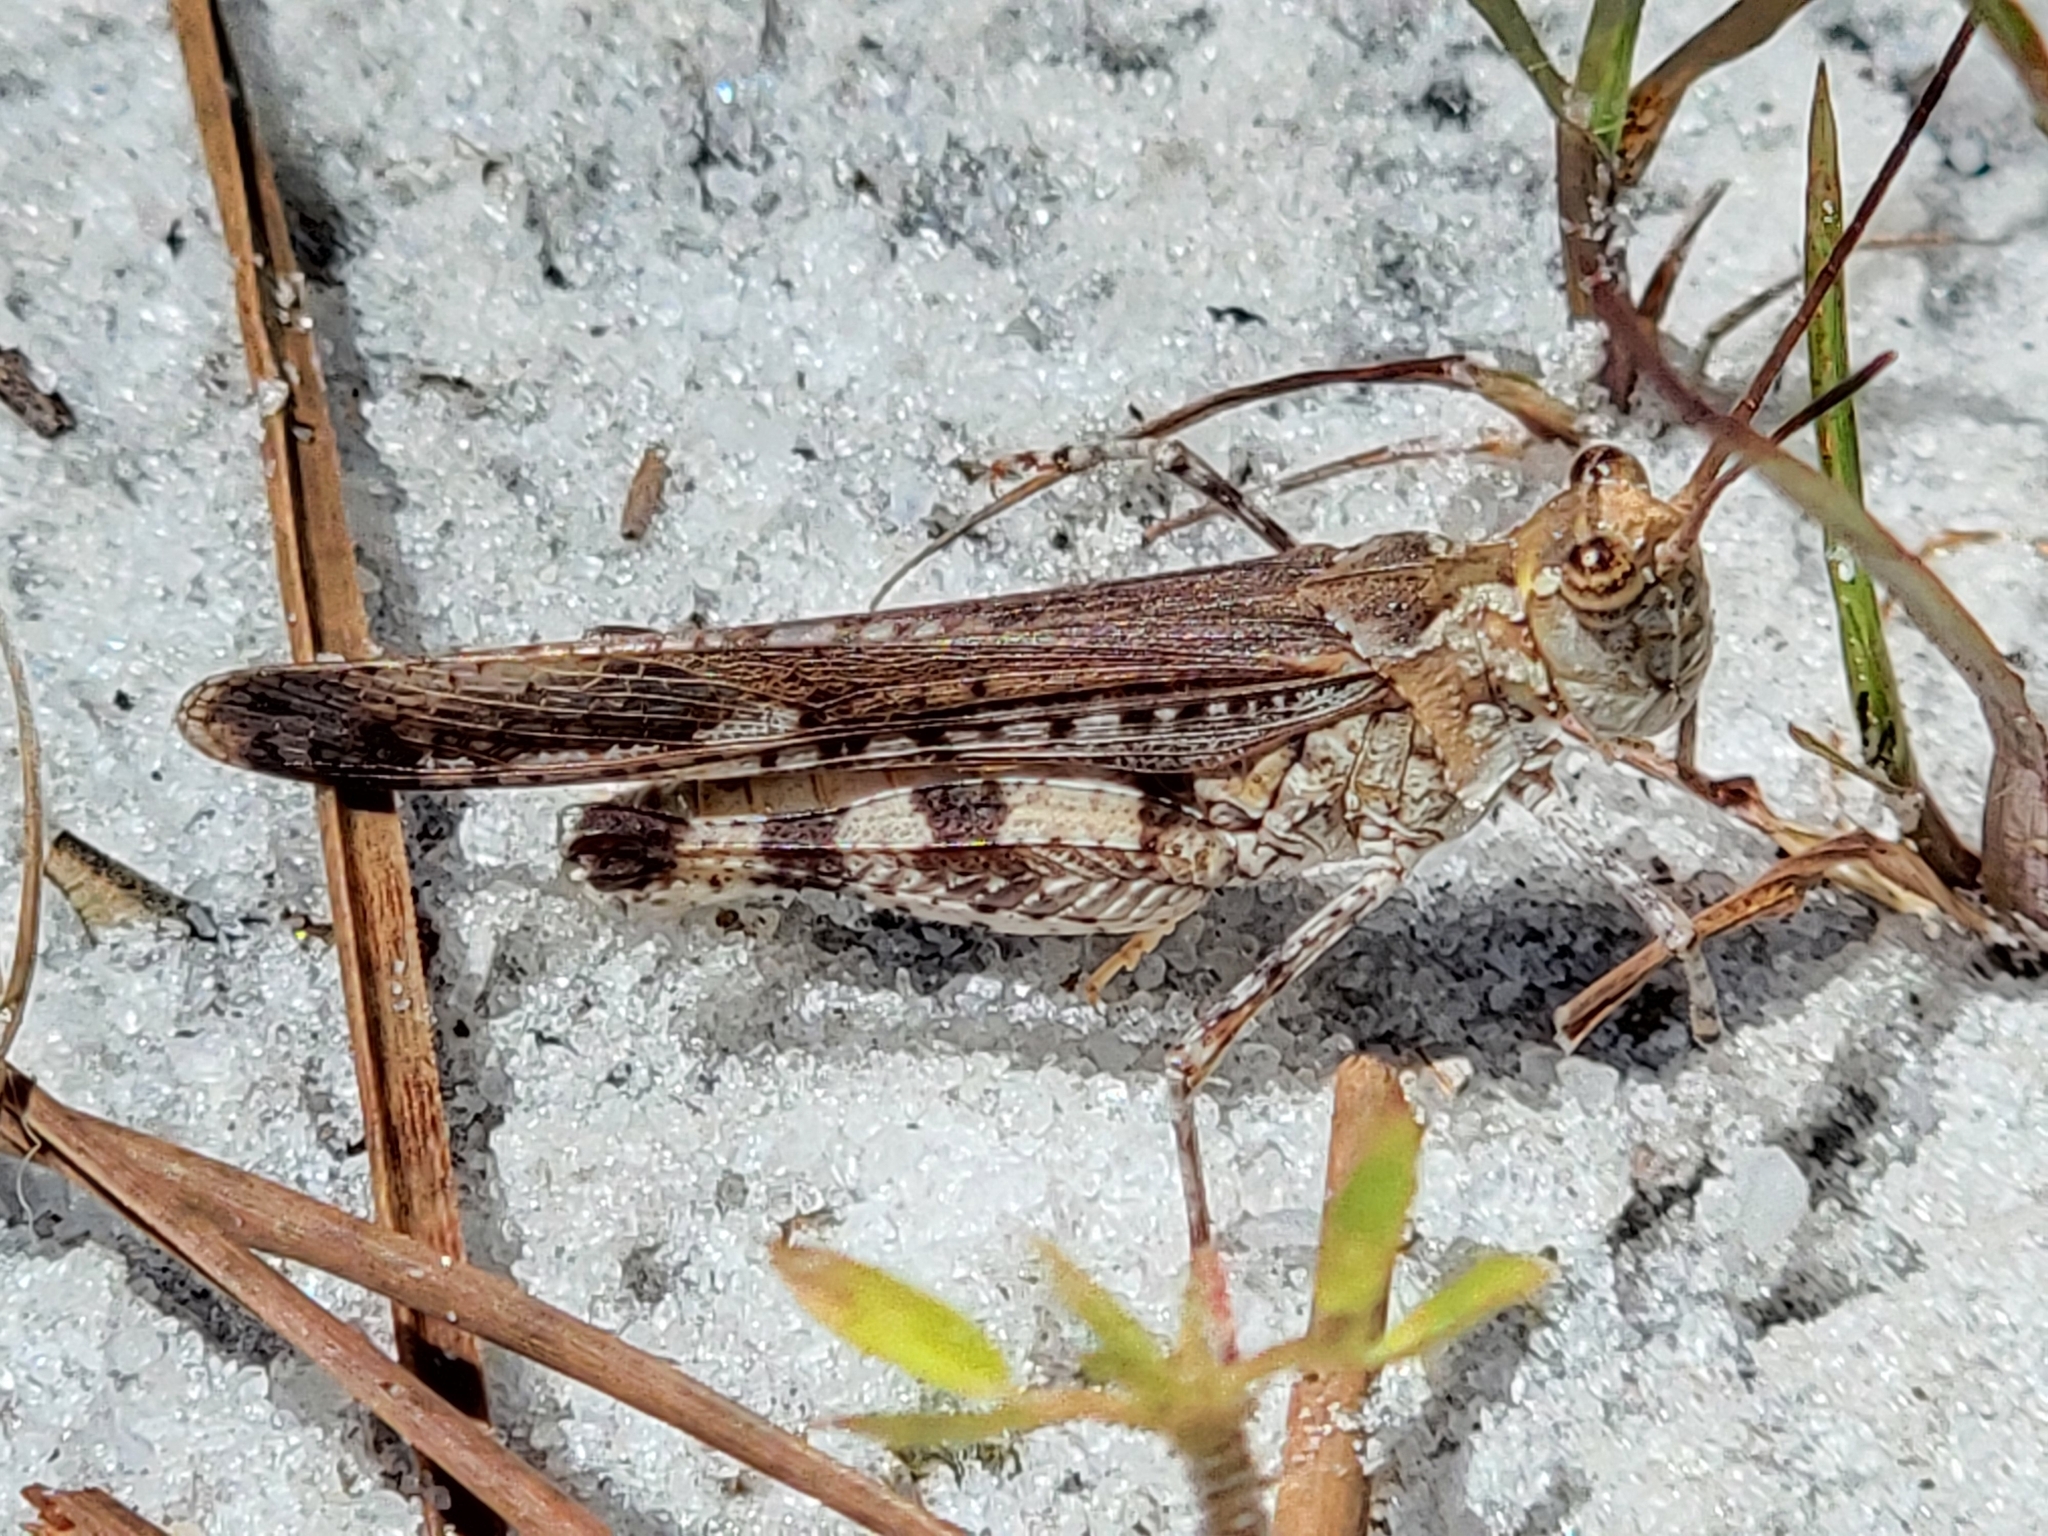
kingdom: Animalia
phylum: Arthropoda
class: Insecta
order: Orthoptera
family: Acrididae
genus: Psinidia
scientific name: Psinidia fenestralis
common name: Long-horned locust
